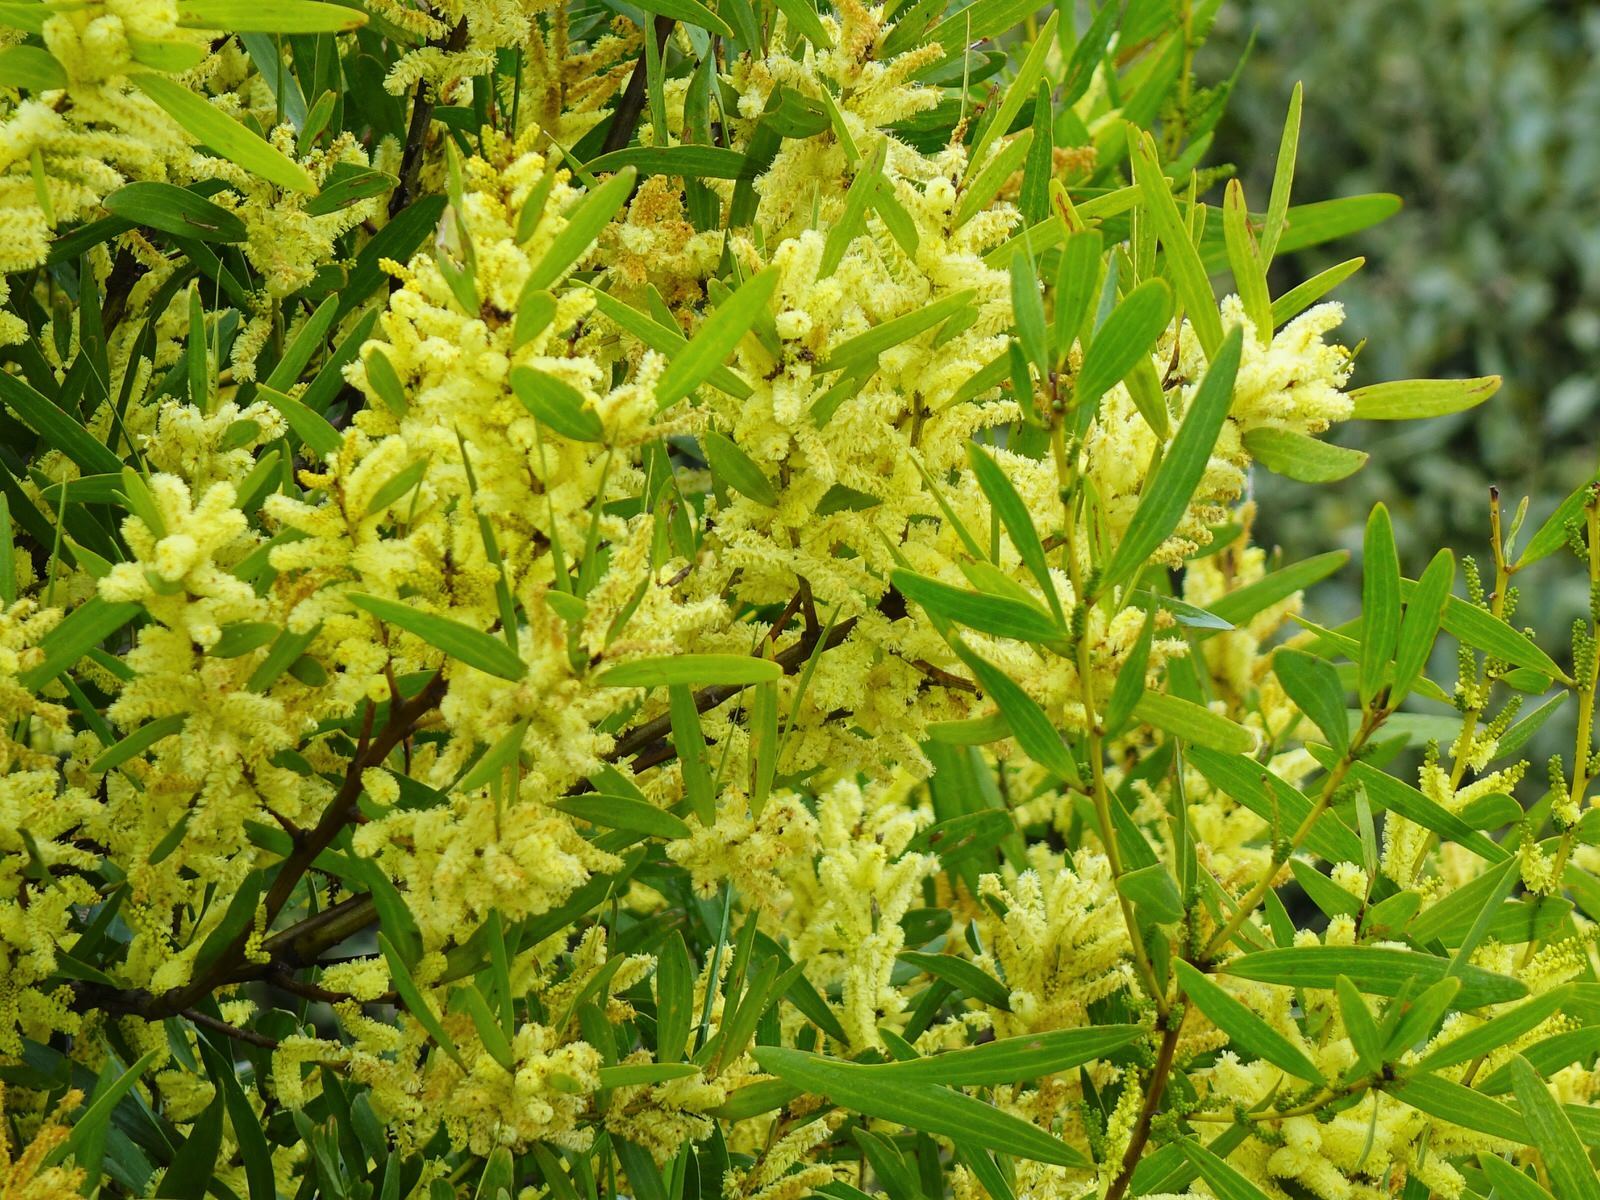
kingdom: Plantae
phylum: Tracheophyta
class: Magnoliopsida
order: Fabales
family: Fabaceae
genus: Acacia
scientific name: Acacia longifolia
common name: Sydney golden wattle
